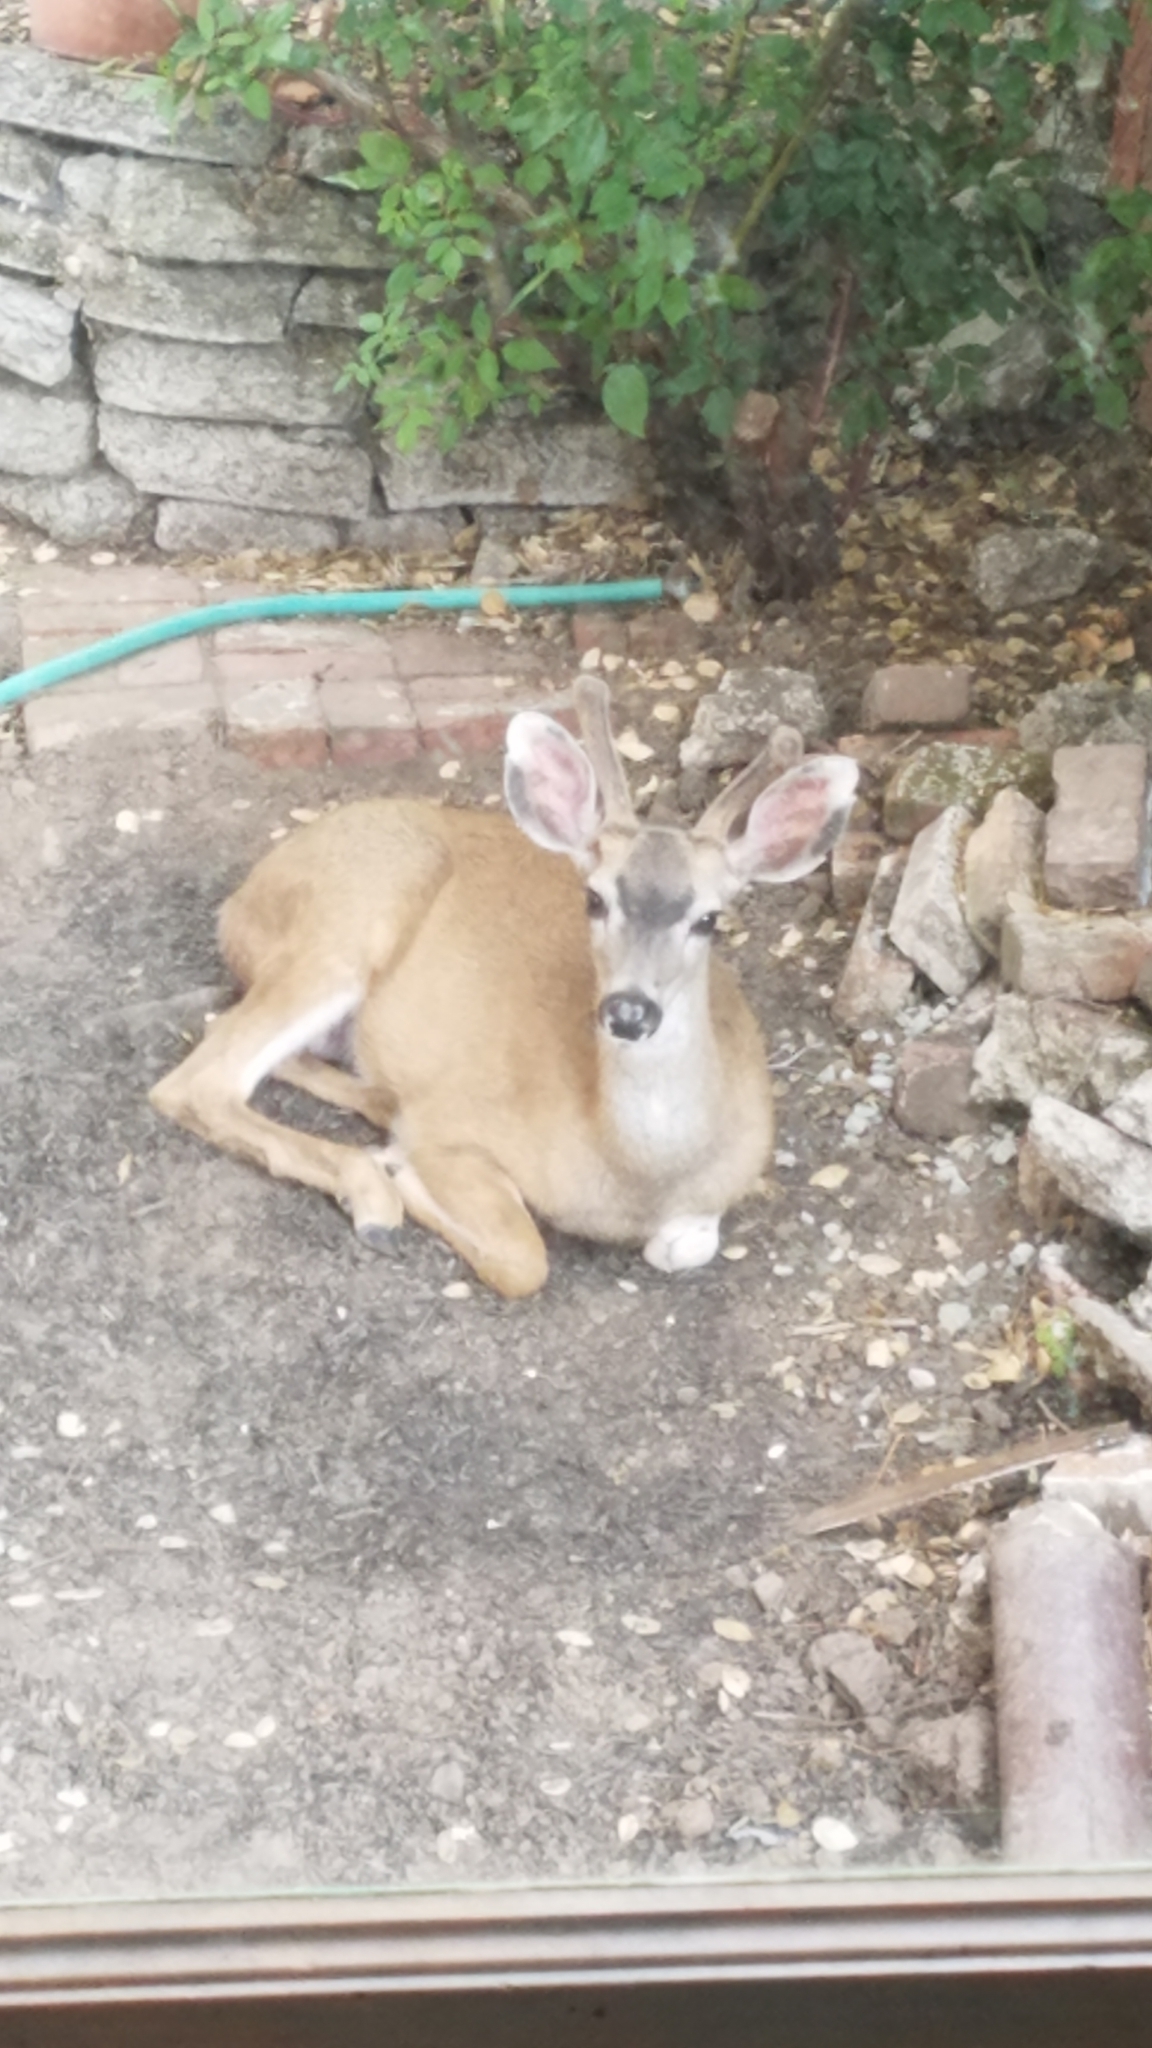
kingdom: Animalia
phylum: Chordata
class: Mammalia
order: Artiodactyla
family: Cervidae
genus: Odocoileus
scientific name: Odocoileus hemionus
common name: Mule deer
